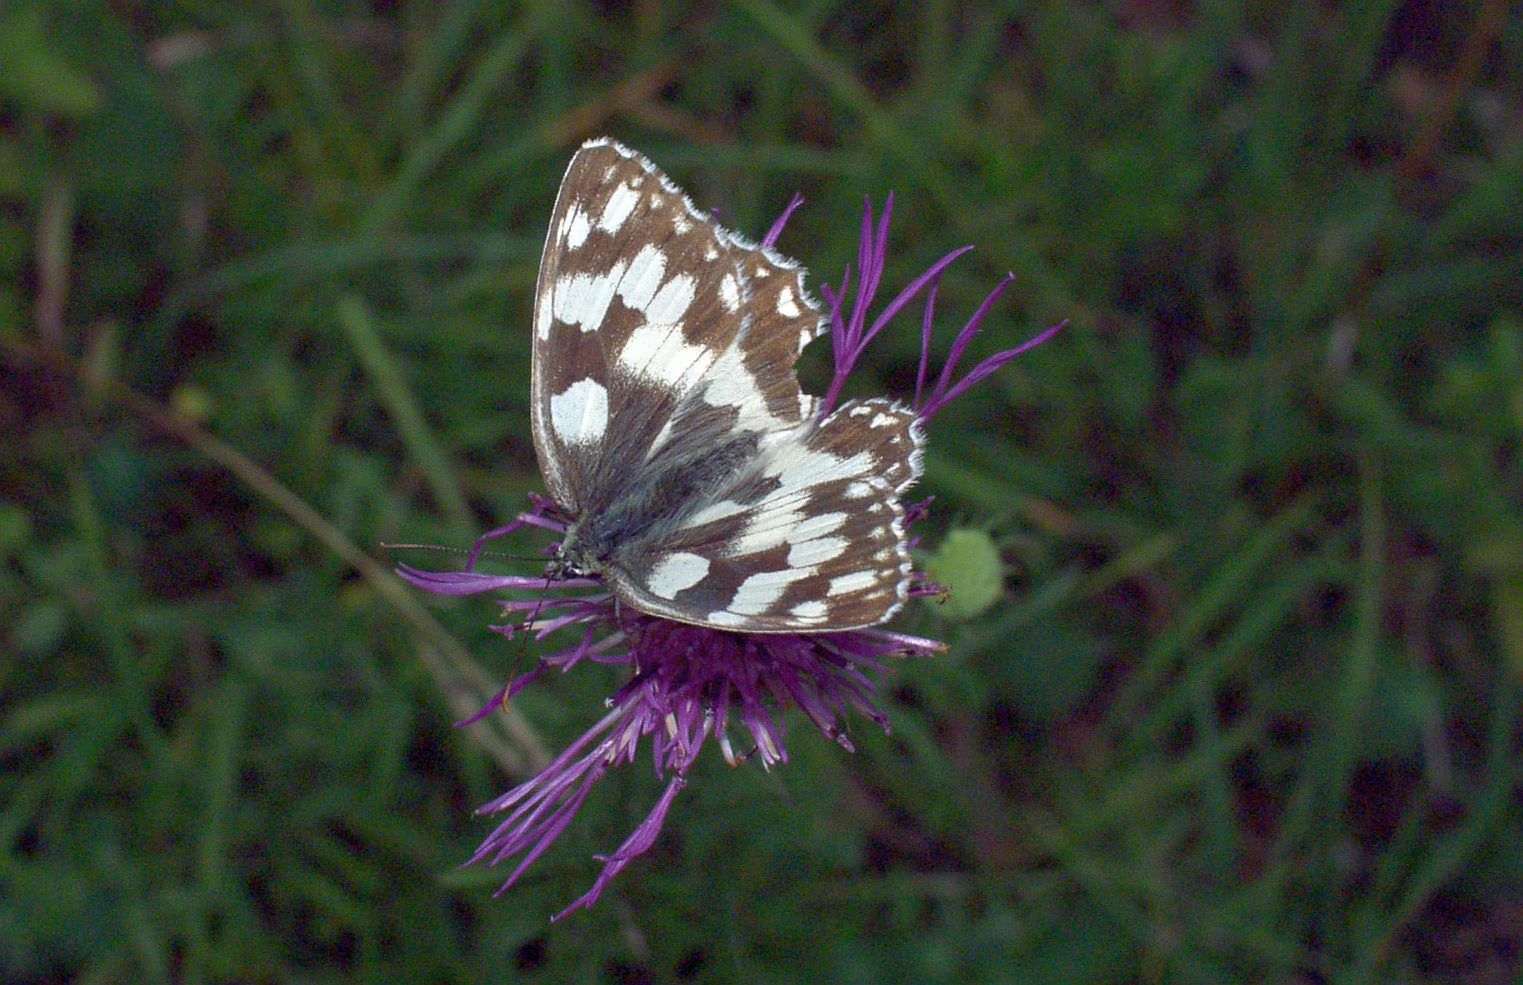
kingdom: Animalia
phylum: Arthropoda
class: Insecta
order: Lepidoptera
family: Nymphalidae
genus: Melanargia
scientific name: Melanargia galathea
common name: Marbled white
